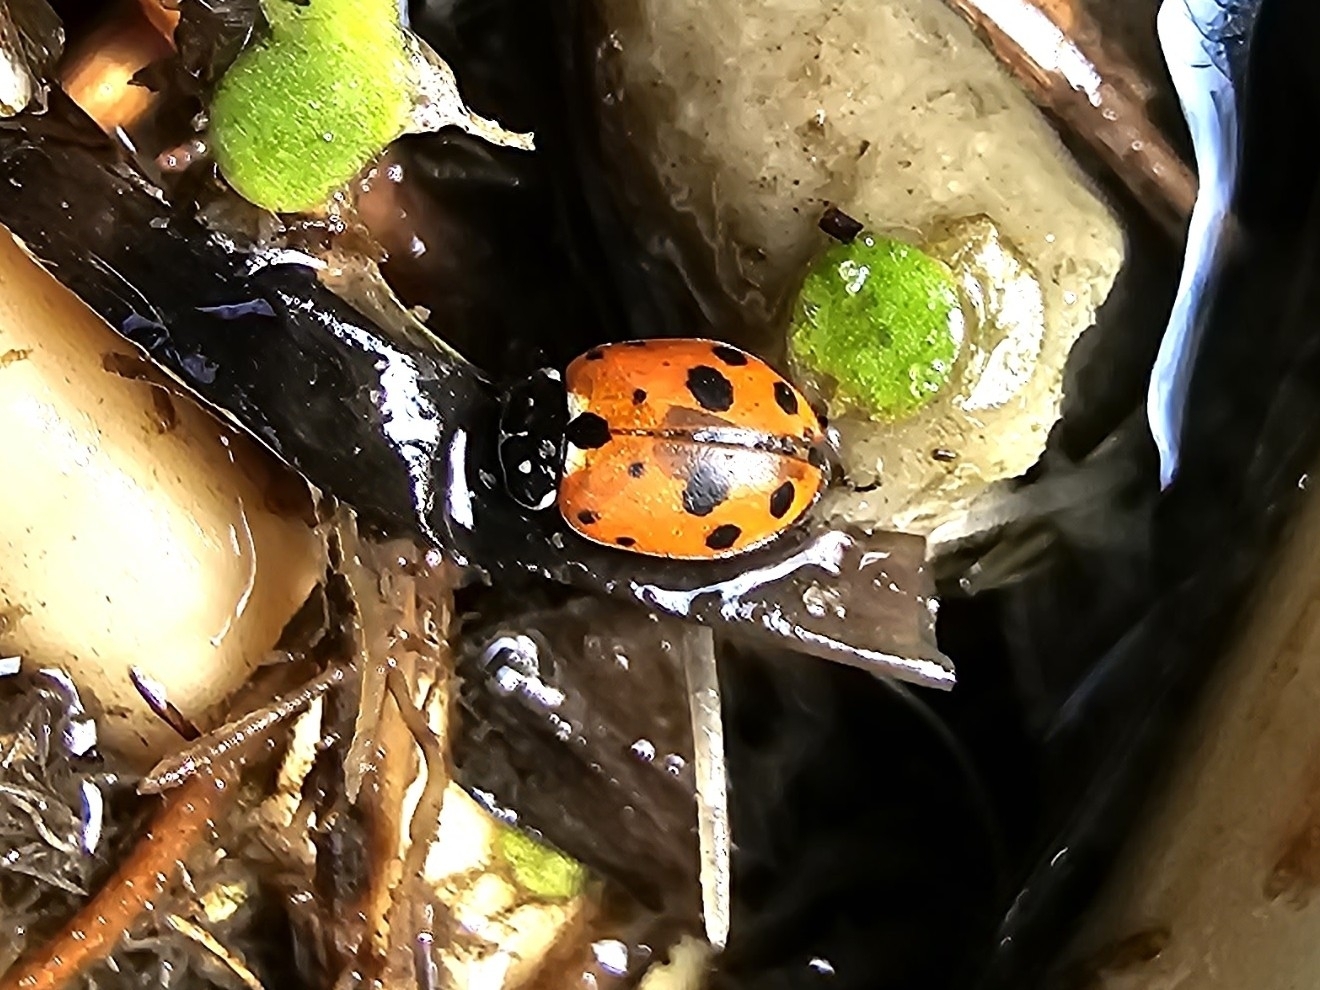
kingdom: Animalia
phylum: Arthropoda
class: Insecta
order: Coleoptera
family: Coccinellidae
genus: Hippodamia
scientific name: Hippodamia variegata
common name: Ladybird beetle
